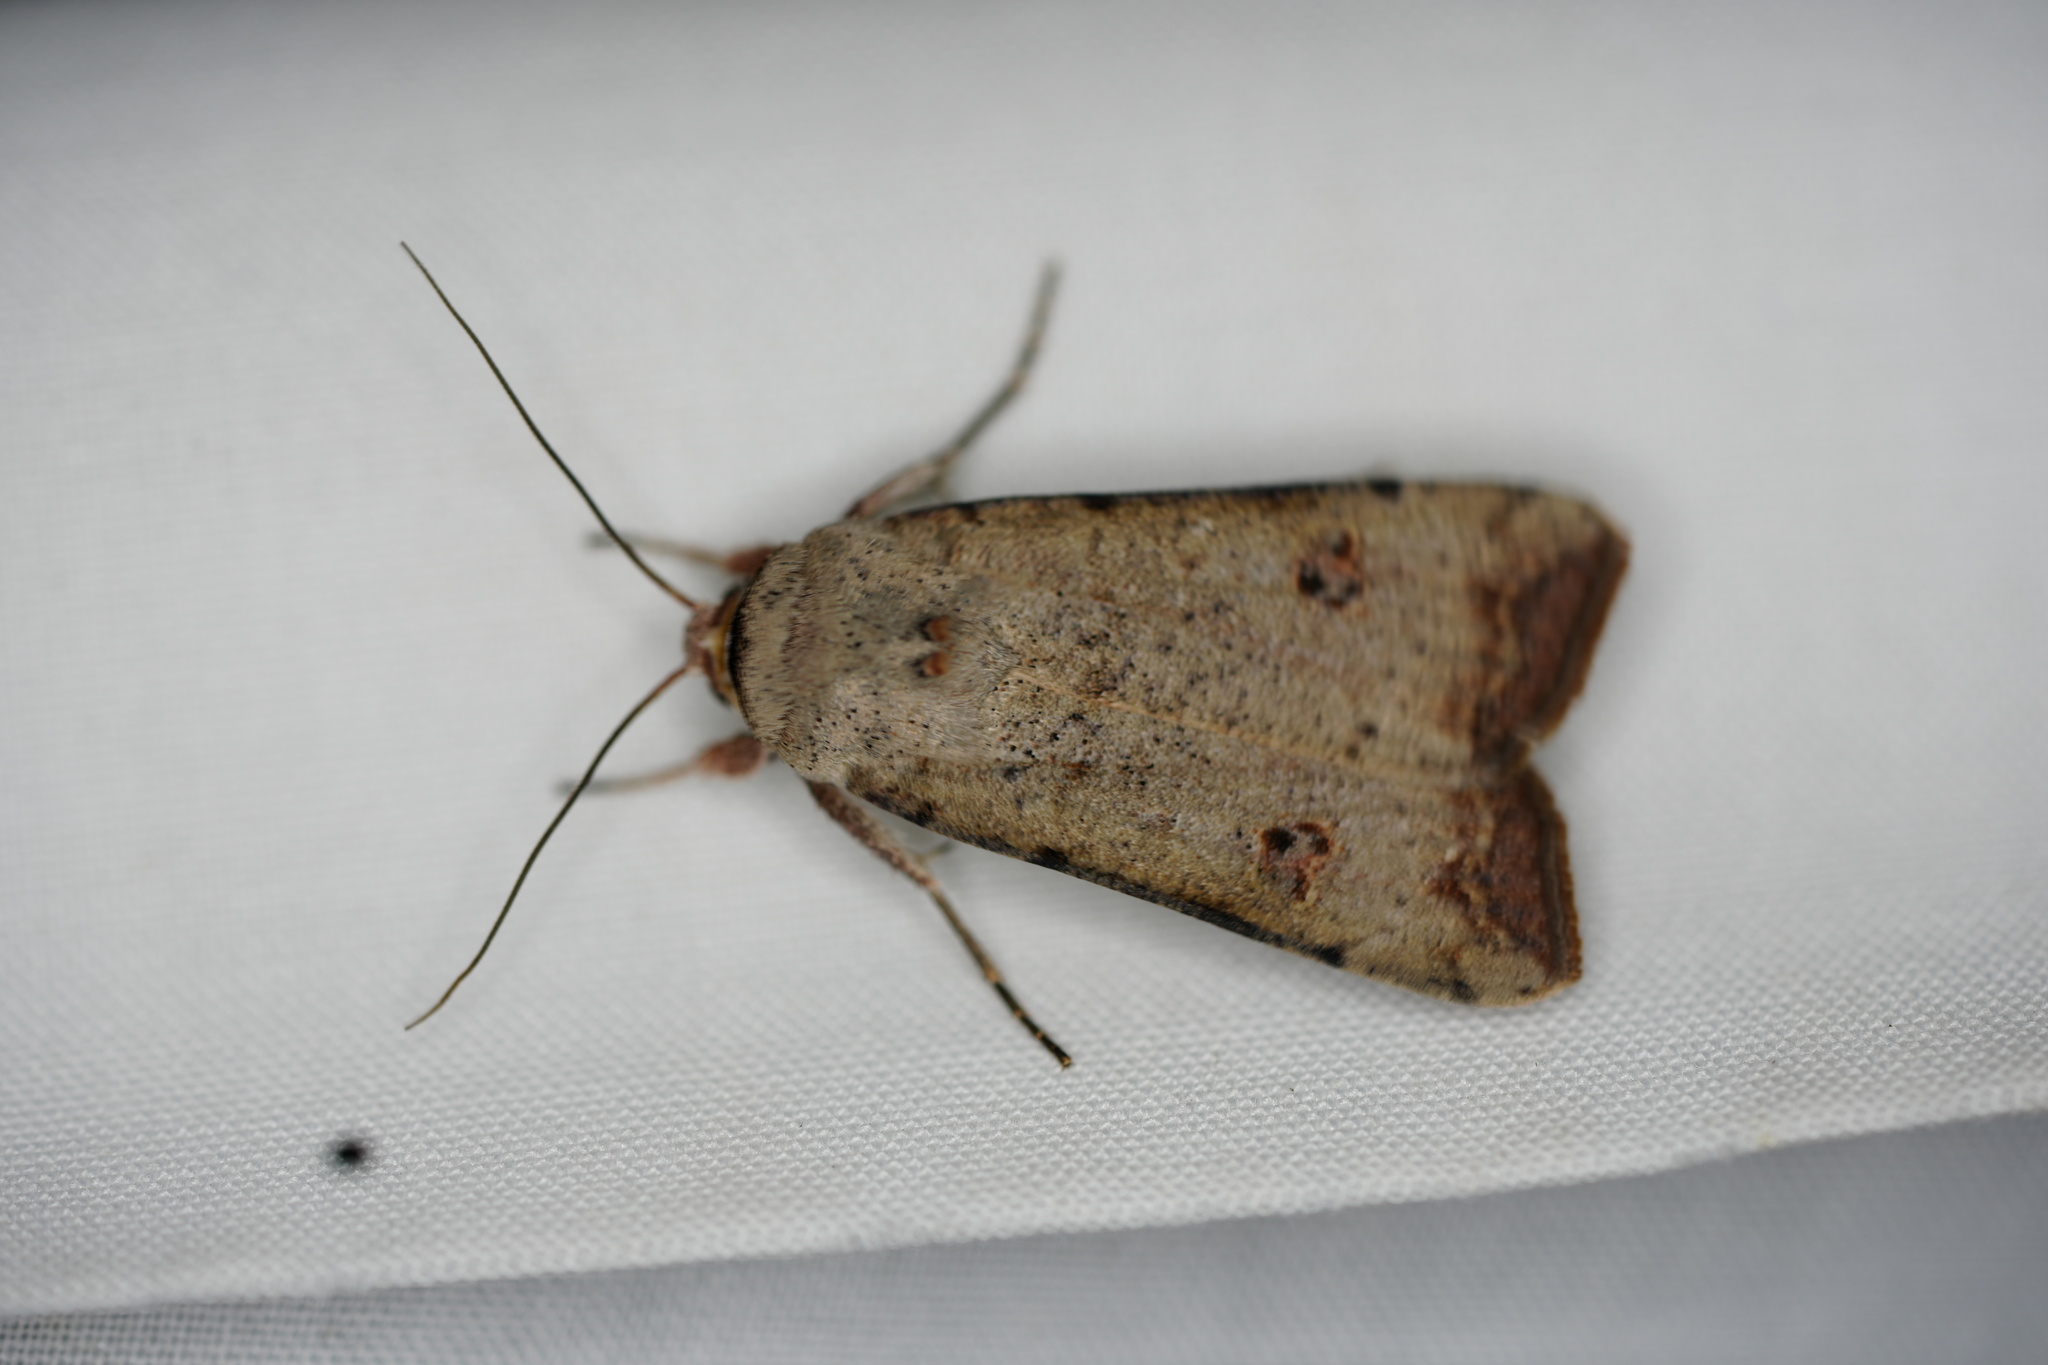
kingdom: Animalia
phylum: Arthropoda
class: Insecta
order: Lepidoptera
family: Noctuidae
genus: Anicla
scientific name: Anicla infecta
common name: Green cutworm
